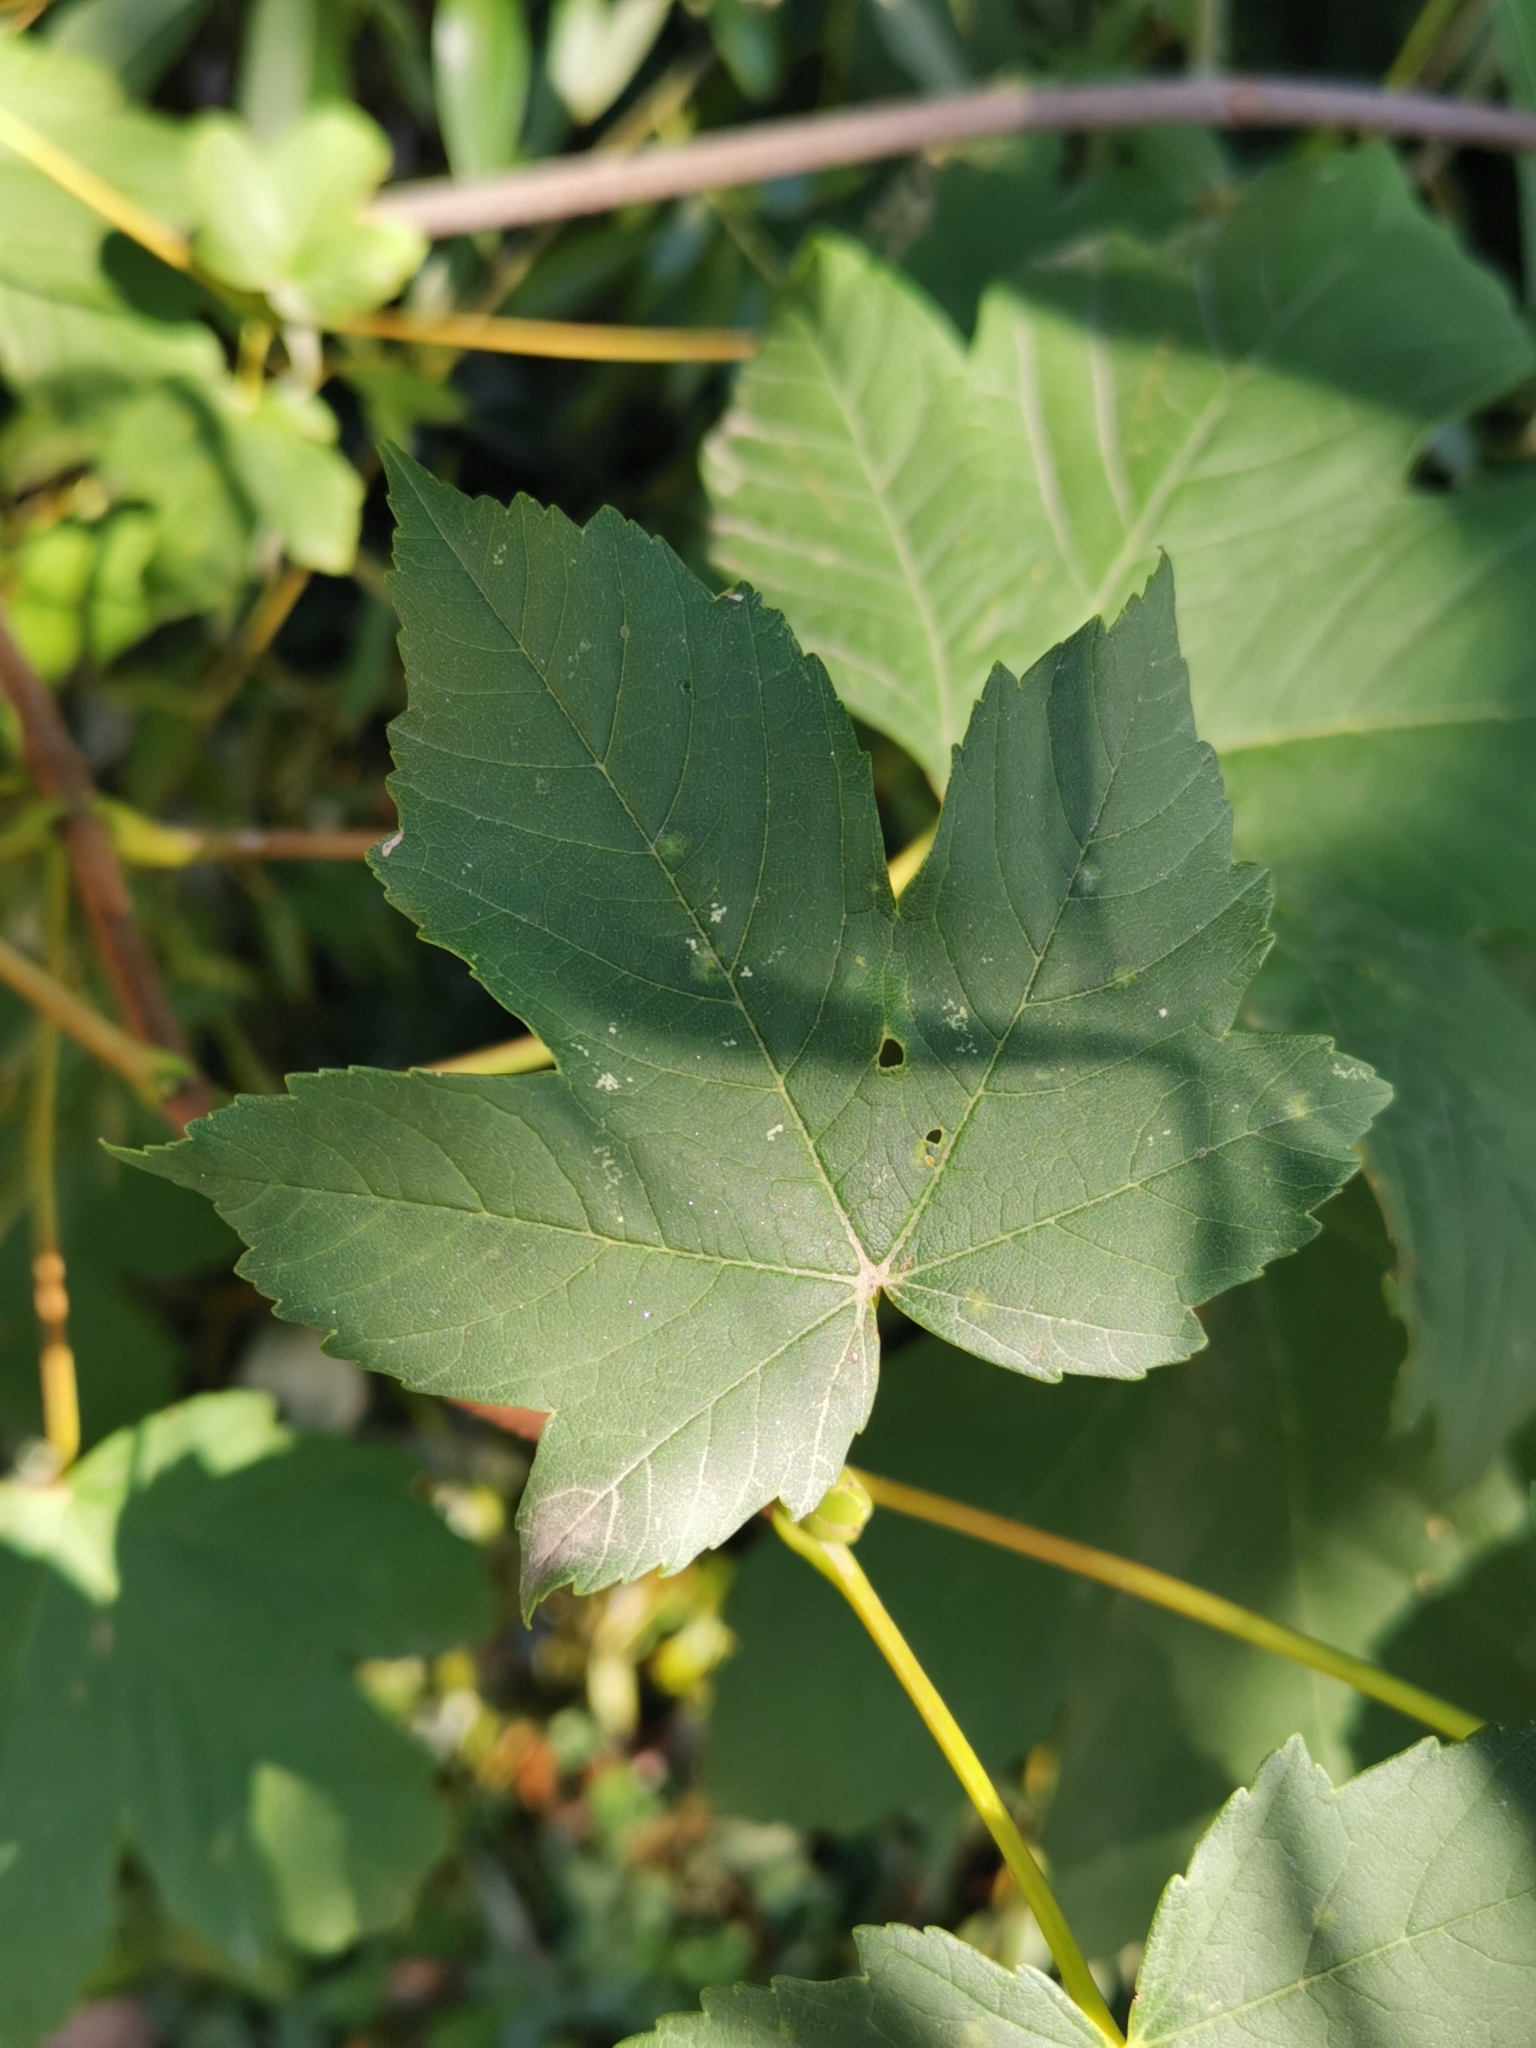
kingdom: Plantae
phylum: Tracheophyta
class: Magnoliopsida
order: Sapindales
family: Sapindaceae
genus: Acer
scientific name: Acer pseudoplatanus
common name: Sycamore
